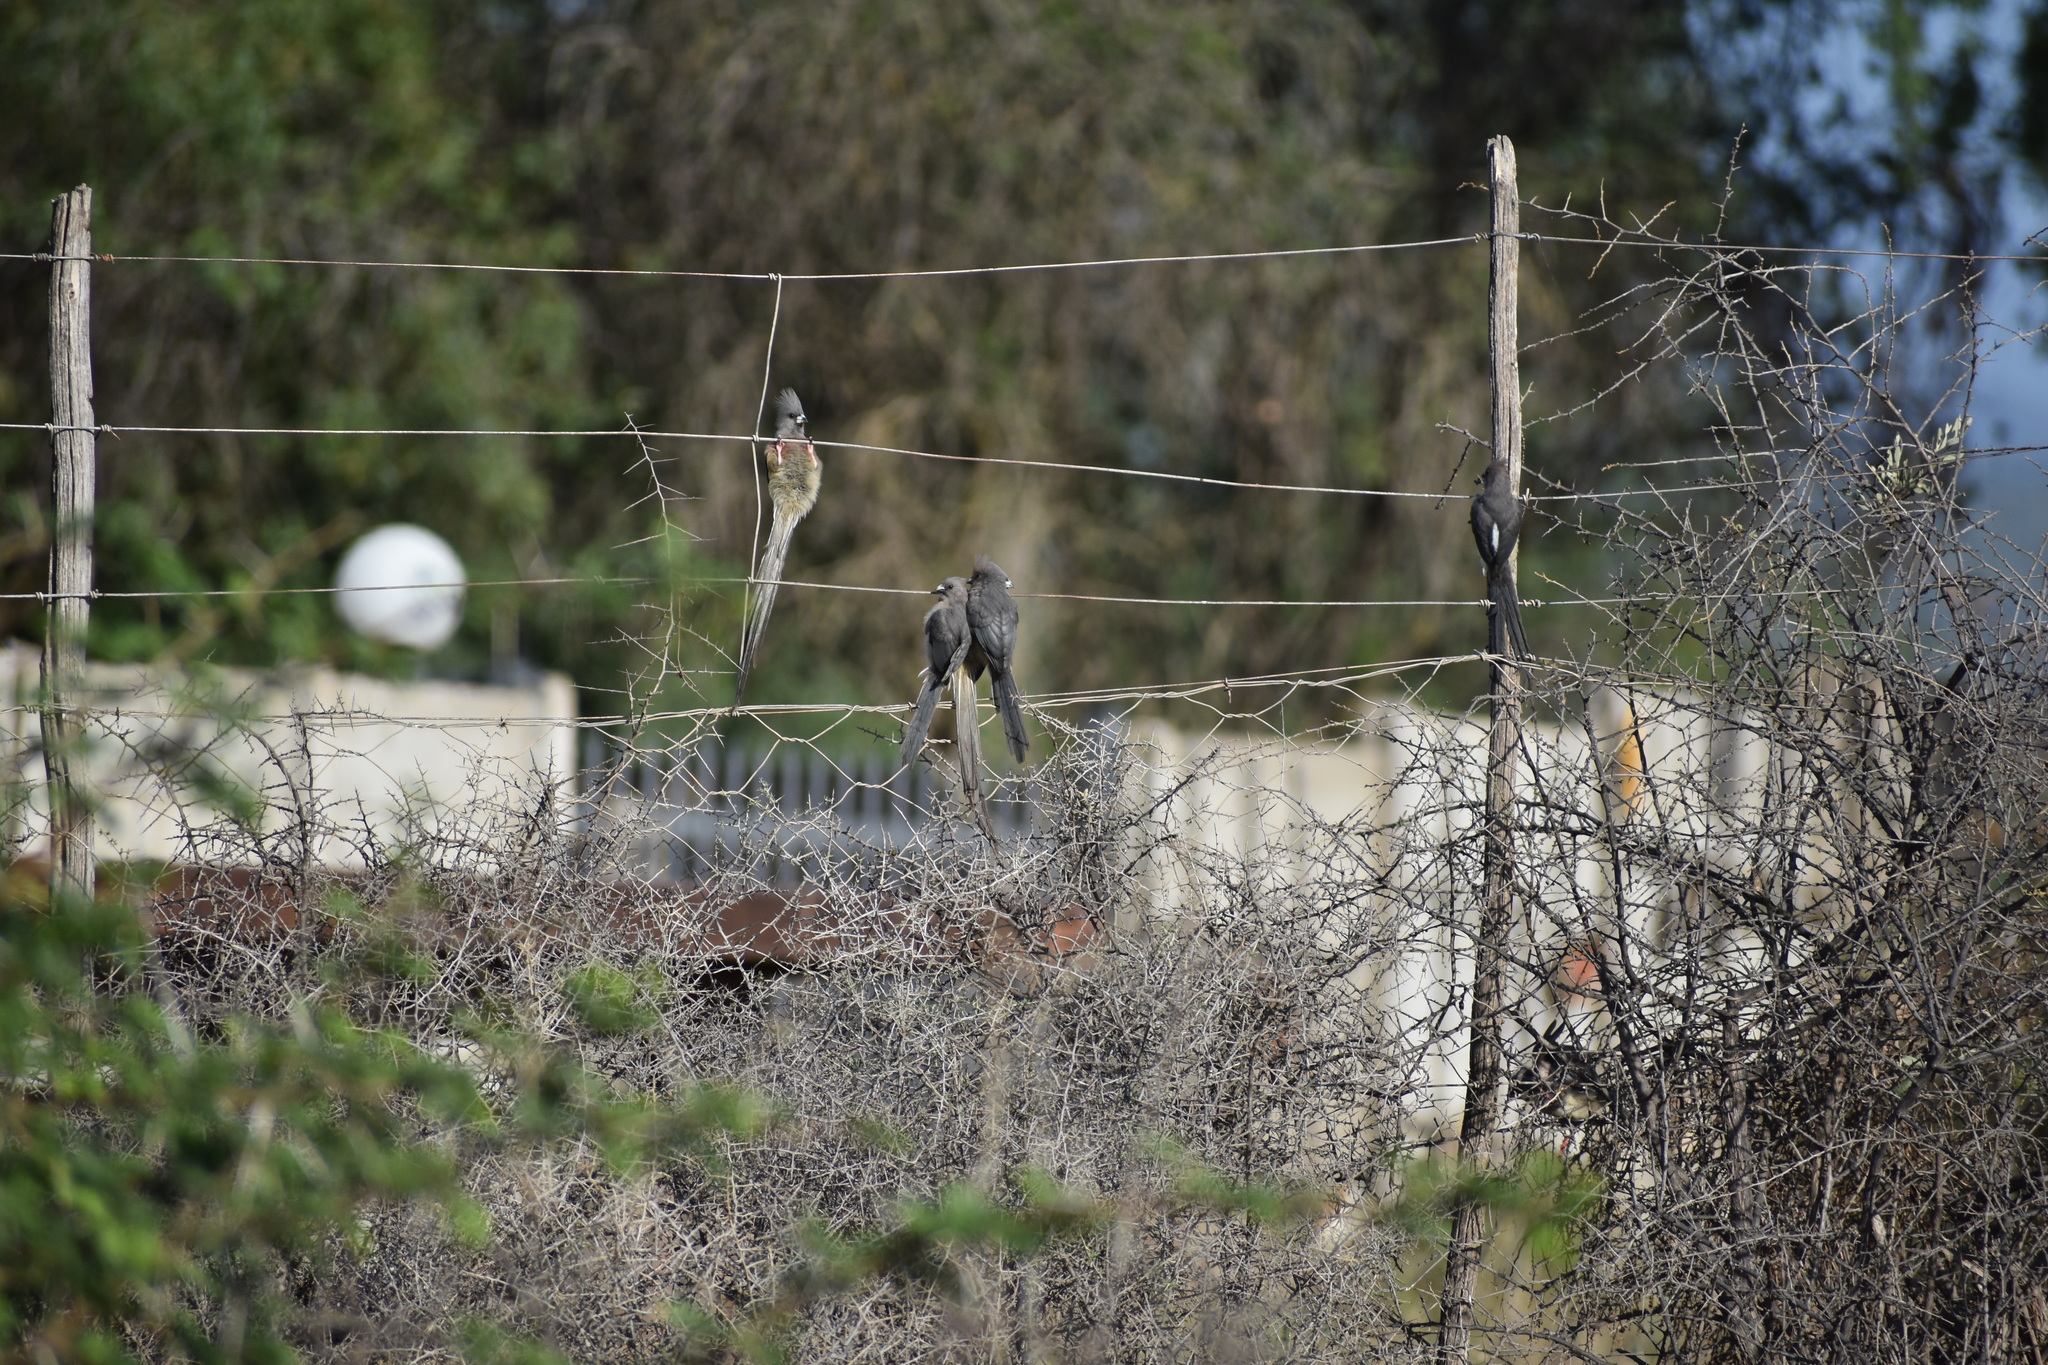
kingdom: Animalia
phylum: Chordata
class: Aves
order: Coliiformes
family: Coliidae
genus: Colius
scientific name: Colius colius
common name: White-backed mousebird
